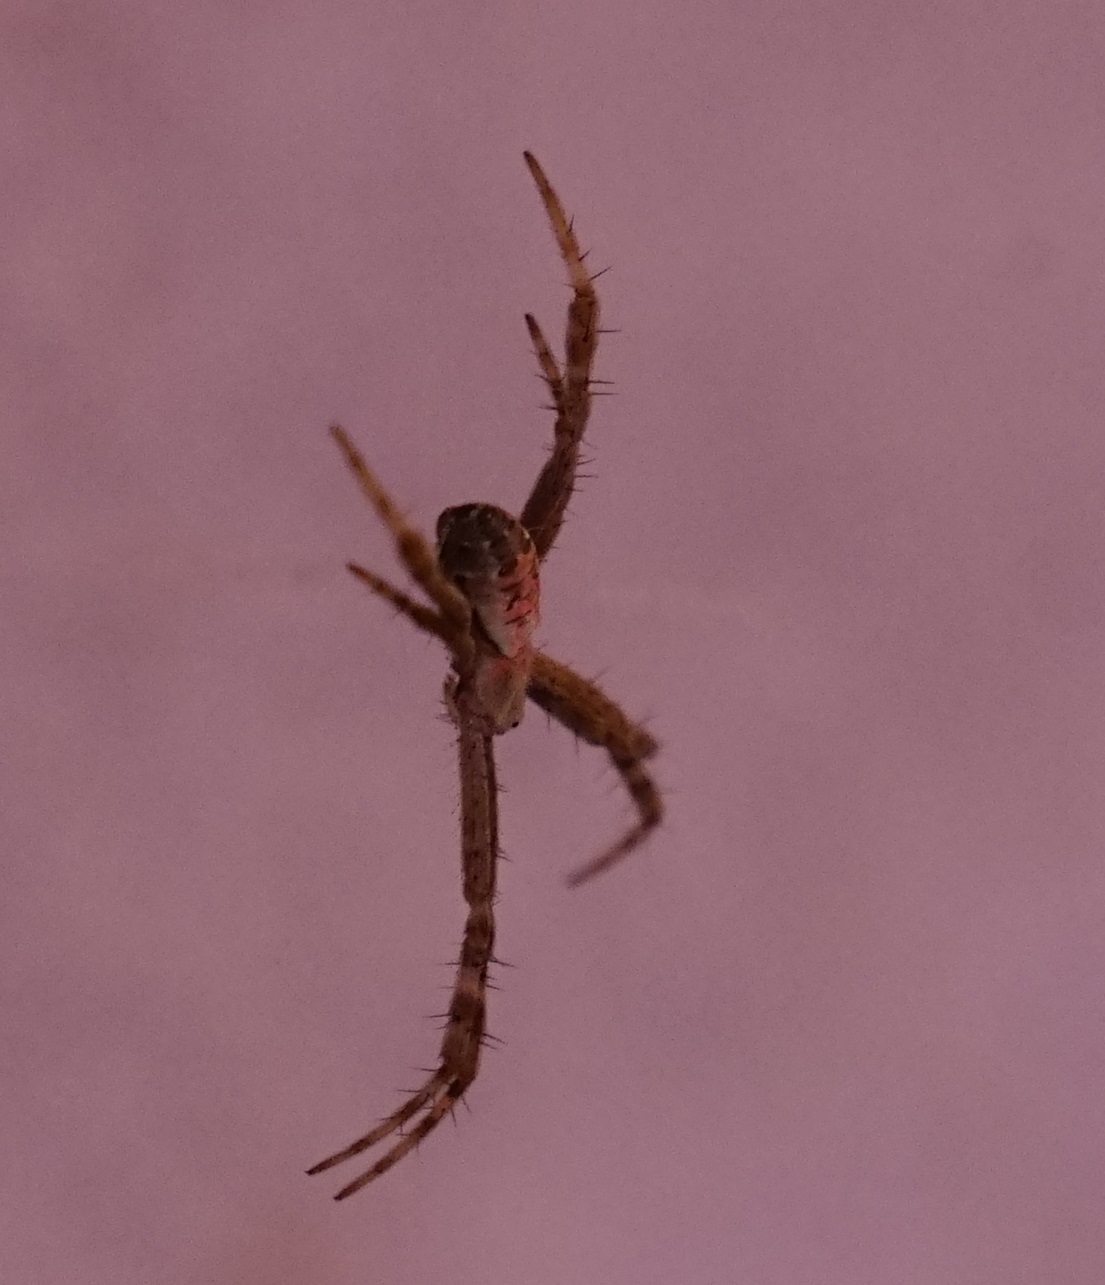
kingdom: Animalia
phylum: Arthropoda
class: Arachnida
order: Araneae
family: Araneidae
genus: Argiope
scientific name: Argiope keyserlingi
